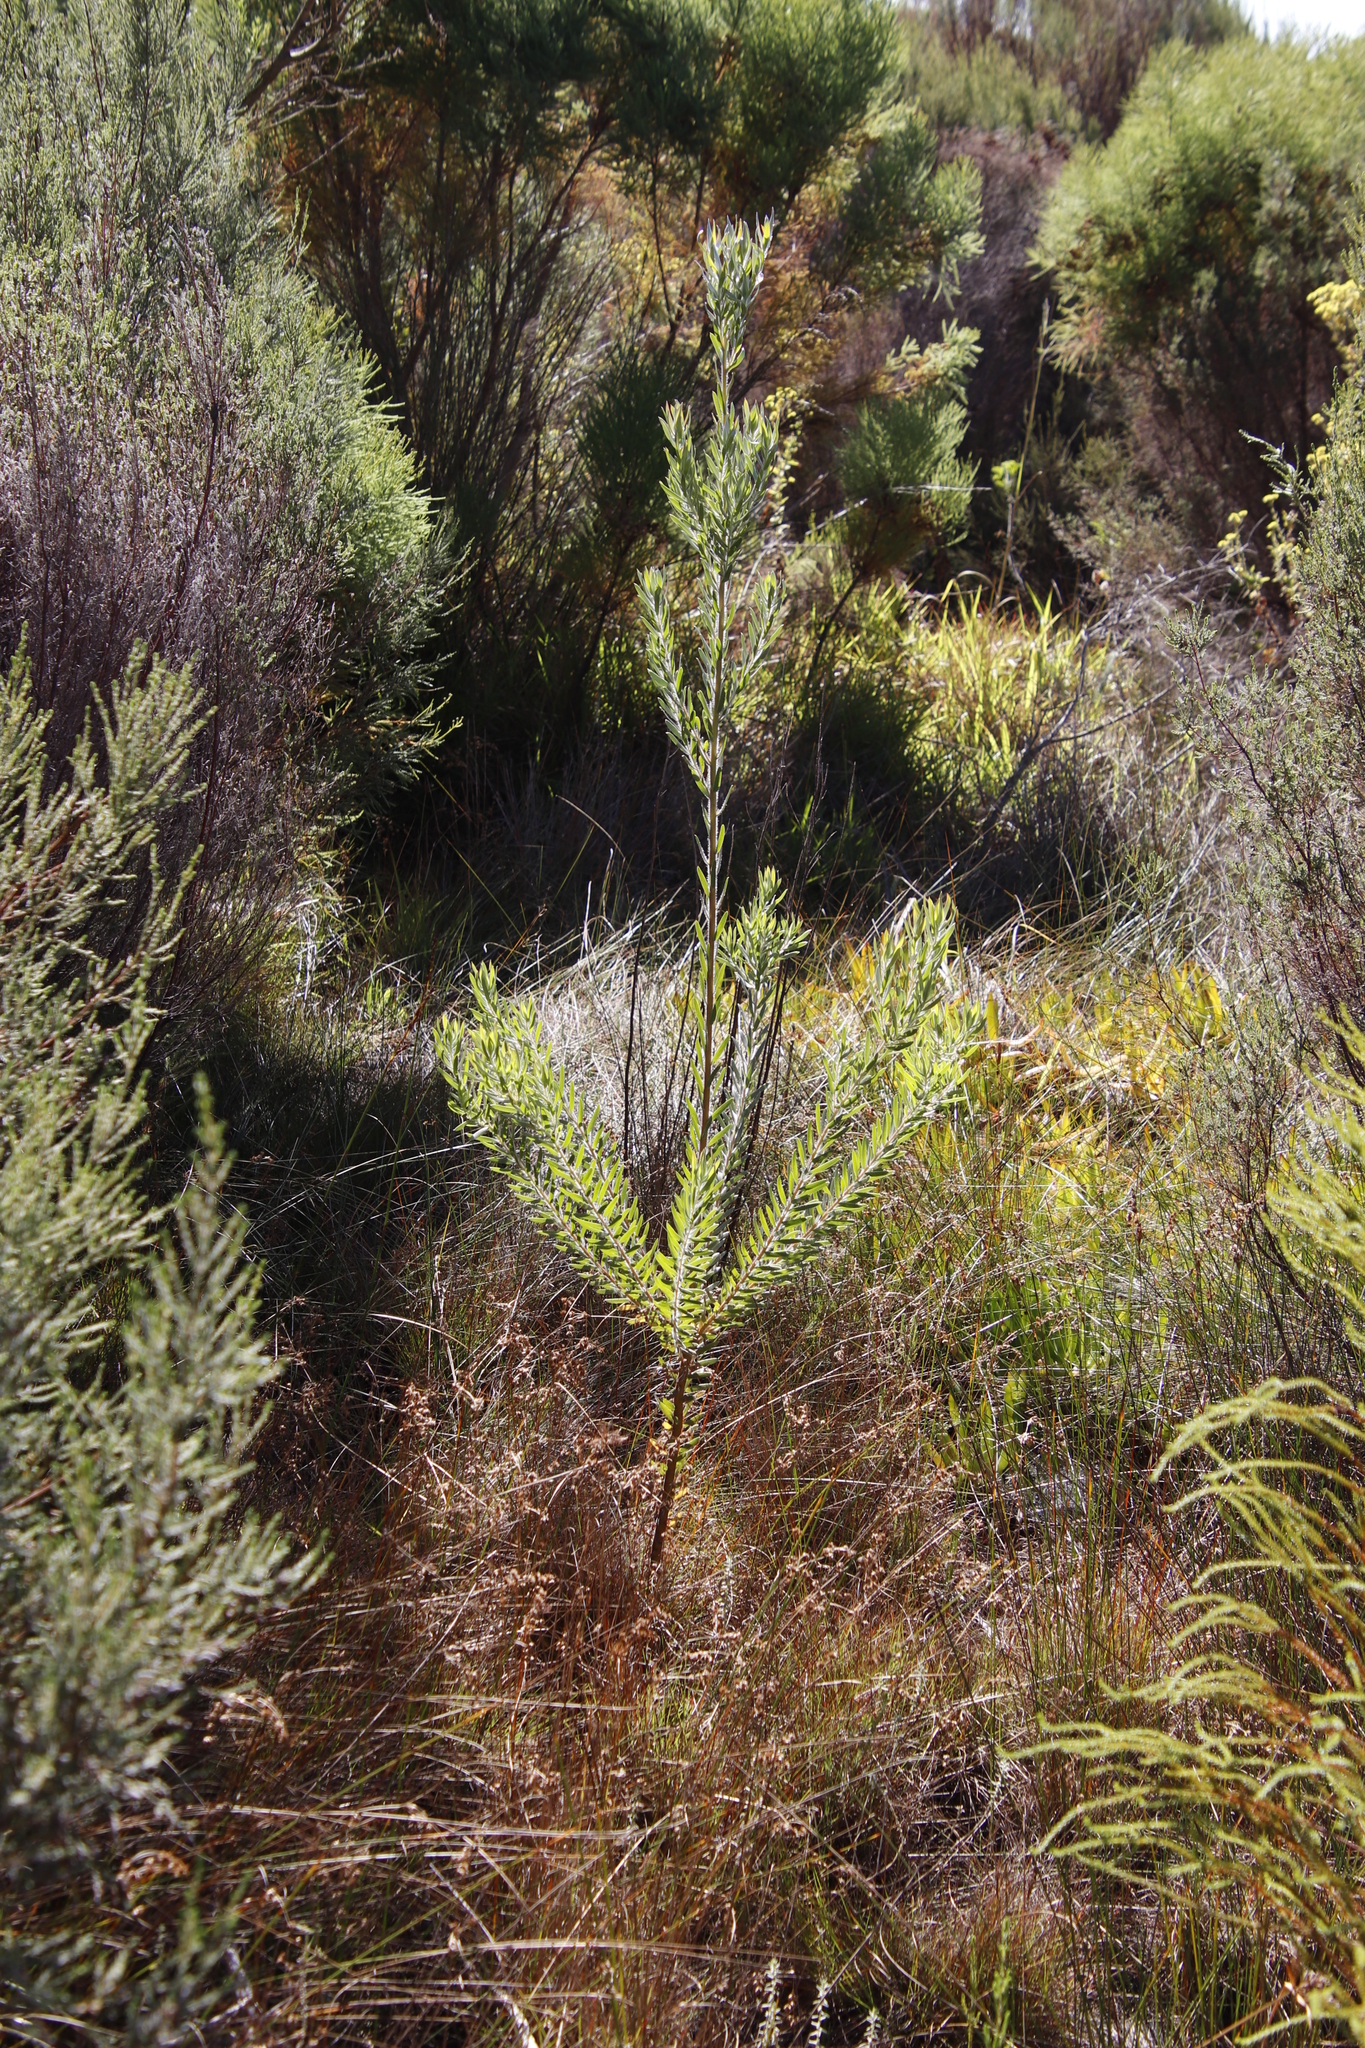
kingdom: Plantae
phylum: Tracheophyta
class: Magnoliopsida
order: Proteales
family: Proteaceae
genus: Leucadendron
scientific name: Leucadendron floridum
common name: Flats conebush
